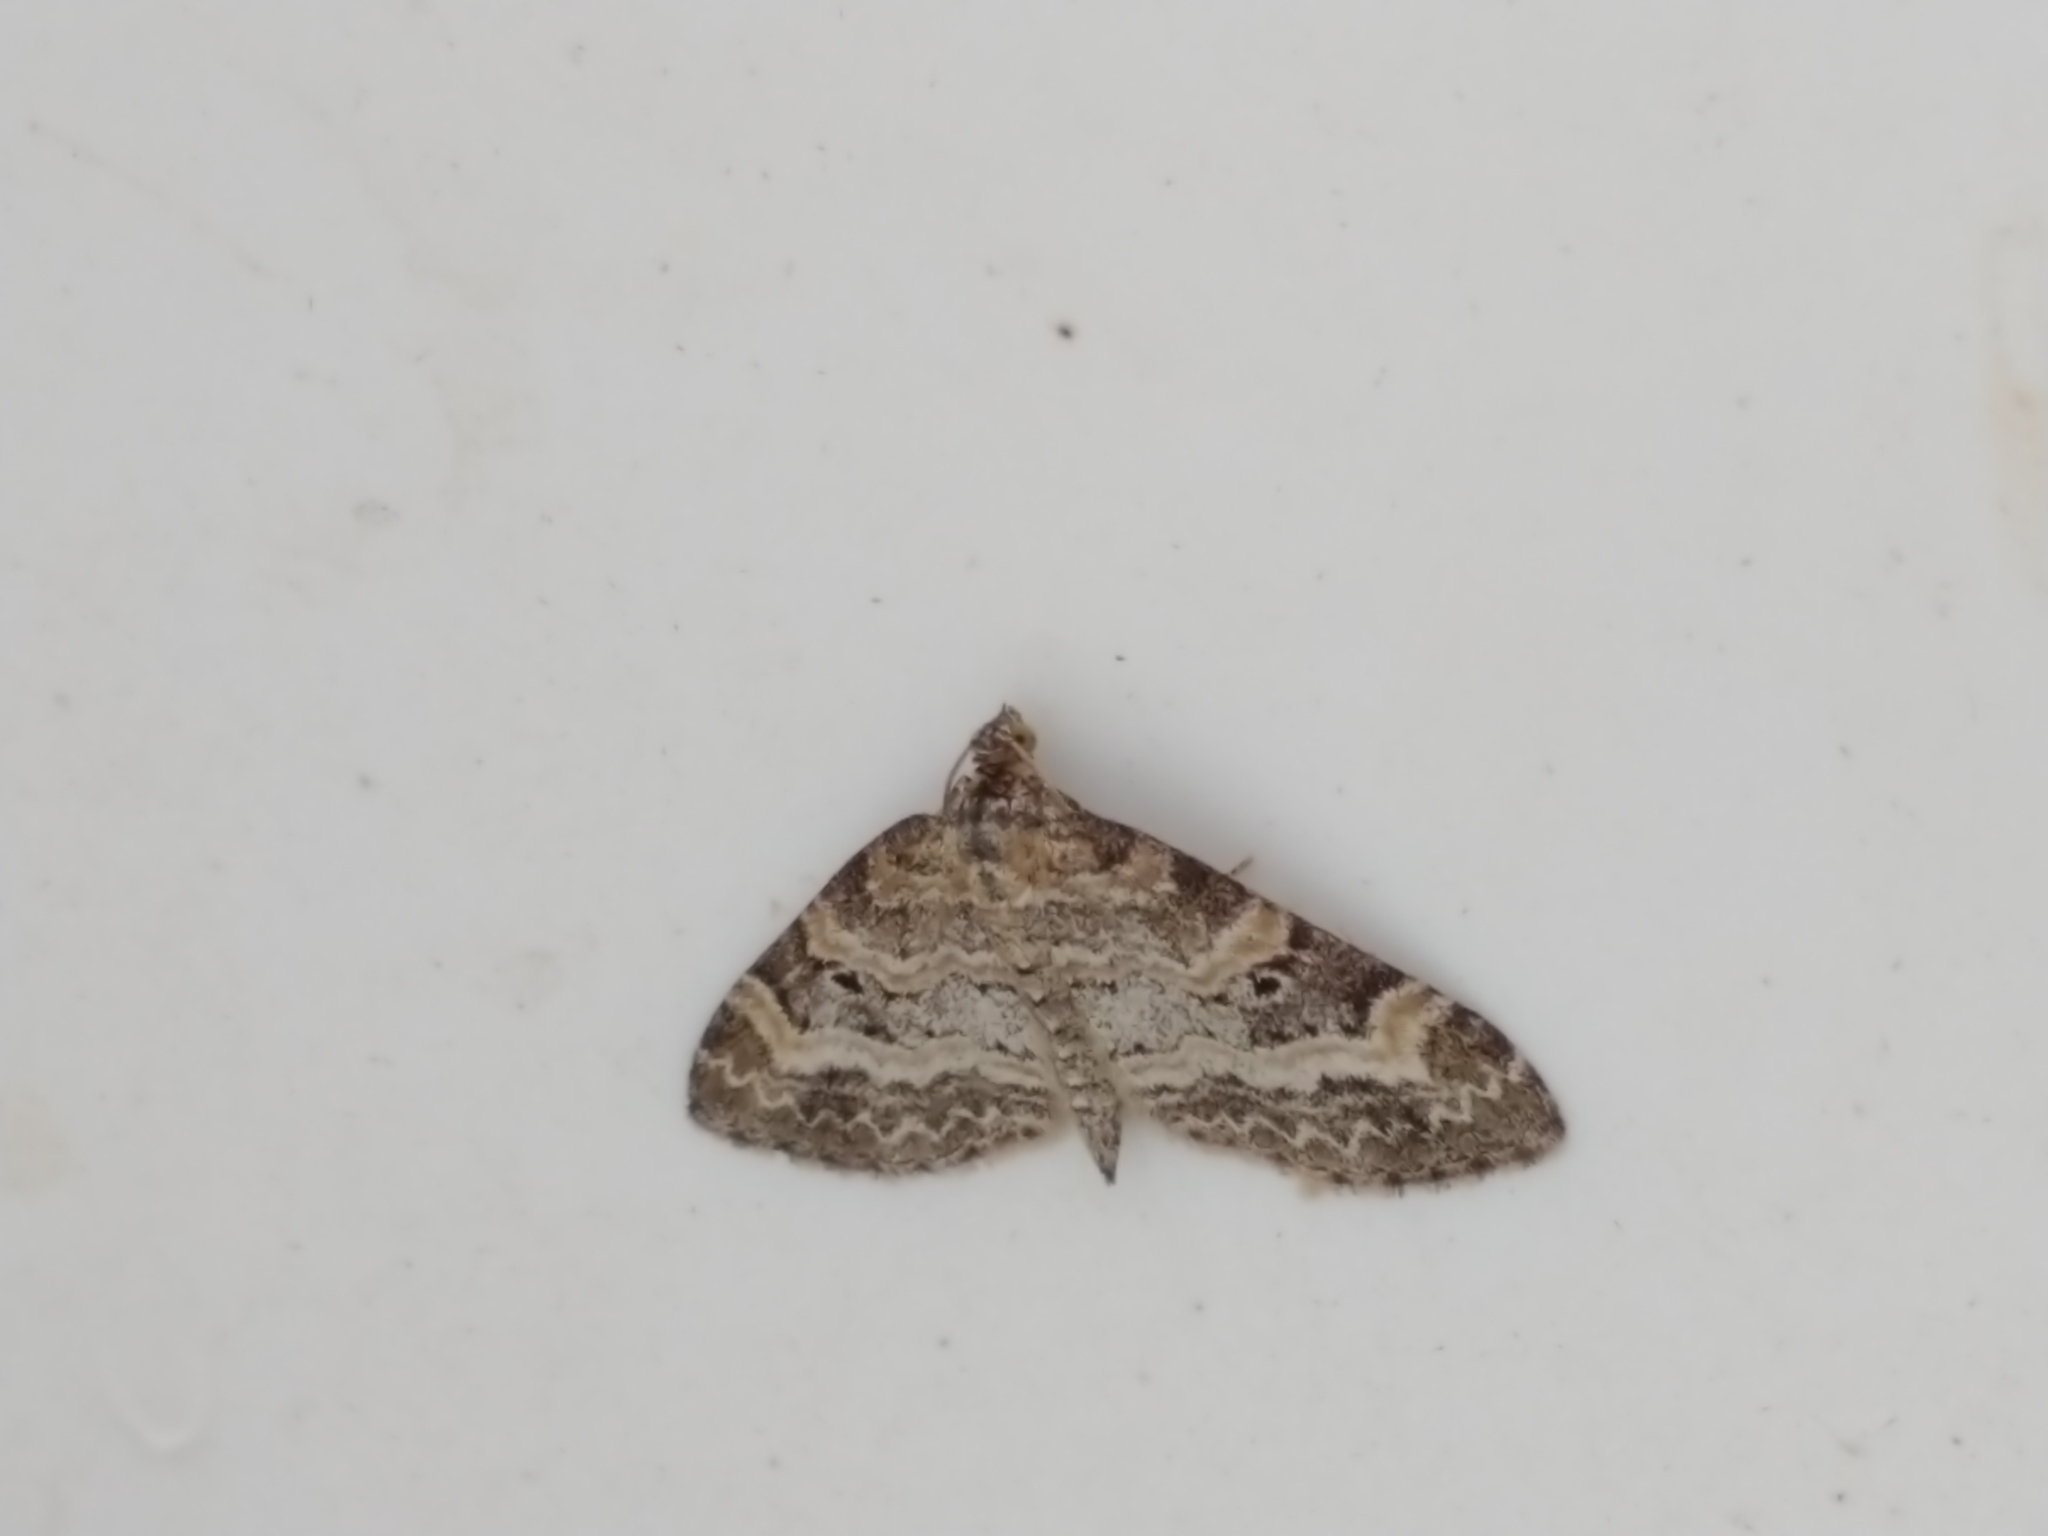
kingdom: Animalia
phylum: Arthropoda
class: Insecta
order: Lepidoptera
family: Geometridae
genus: Pterapherapteryx
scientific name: Pterapherapteryx sexalata
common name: Small seraphim
